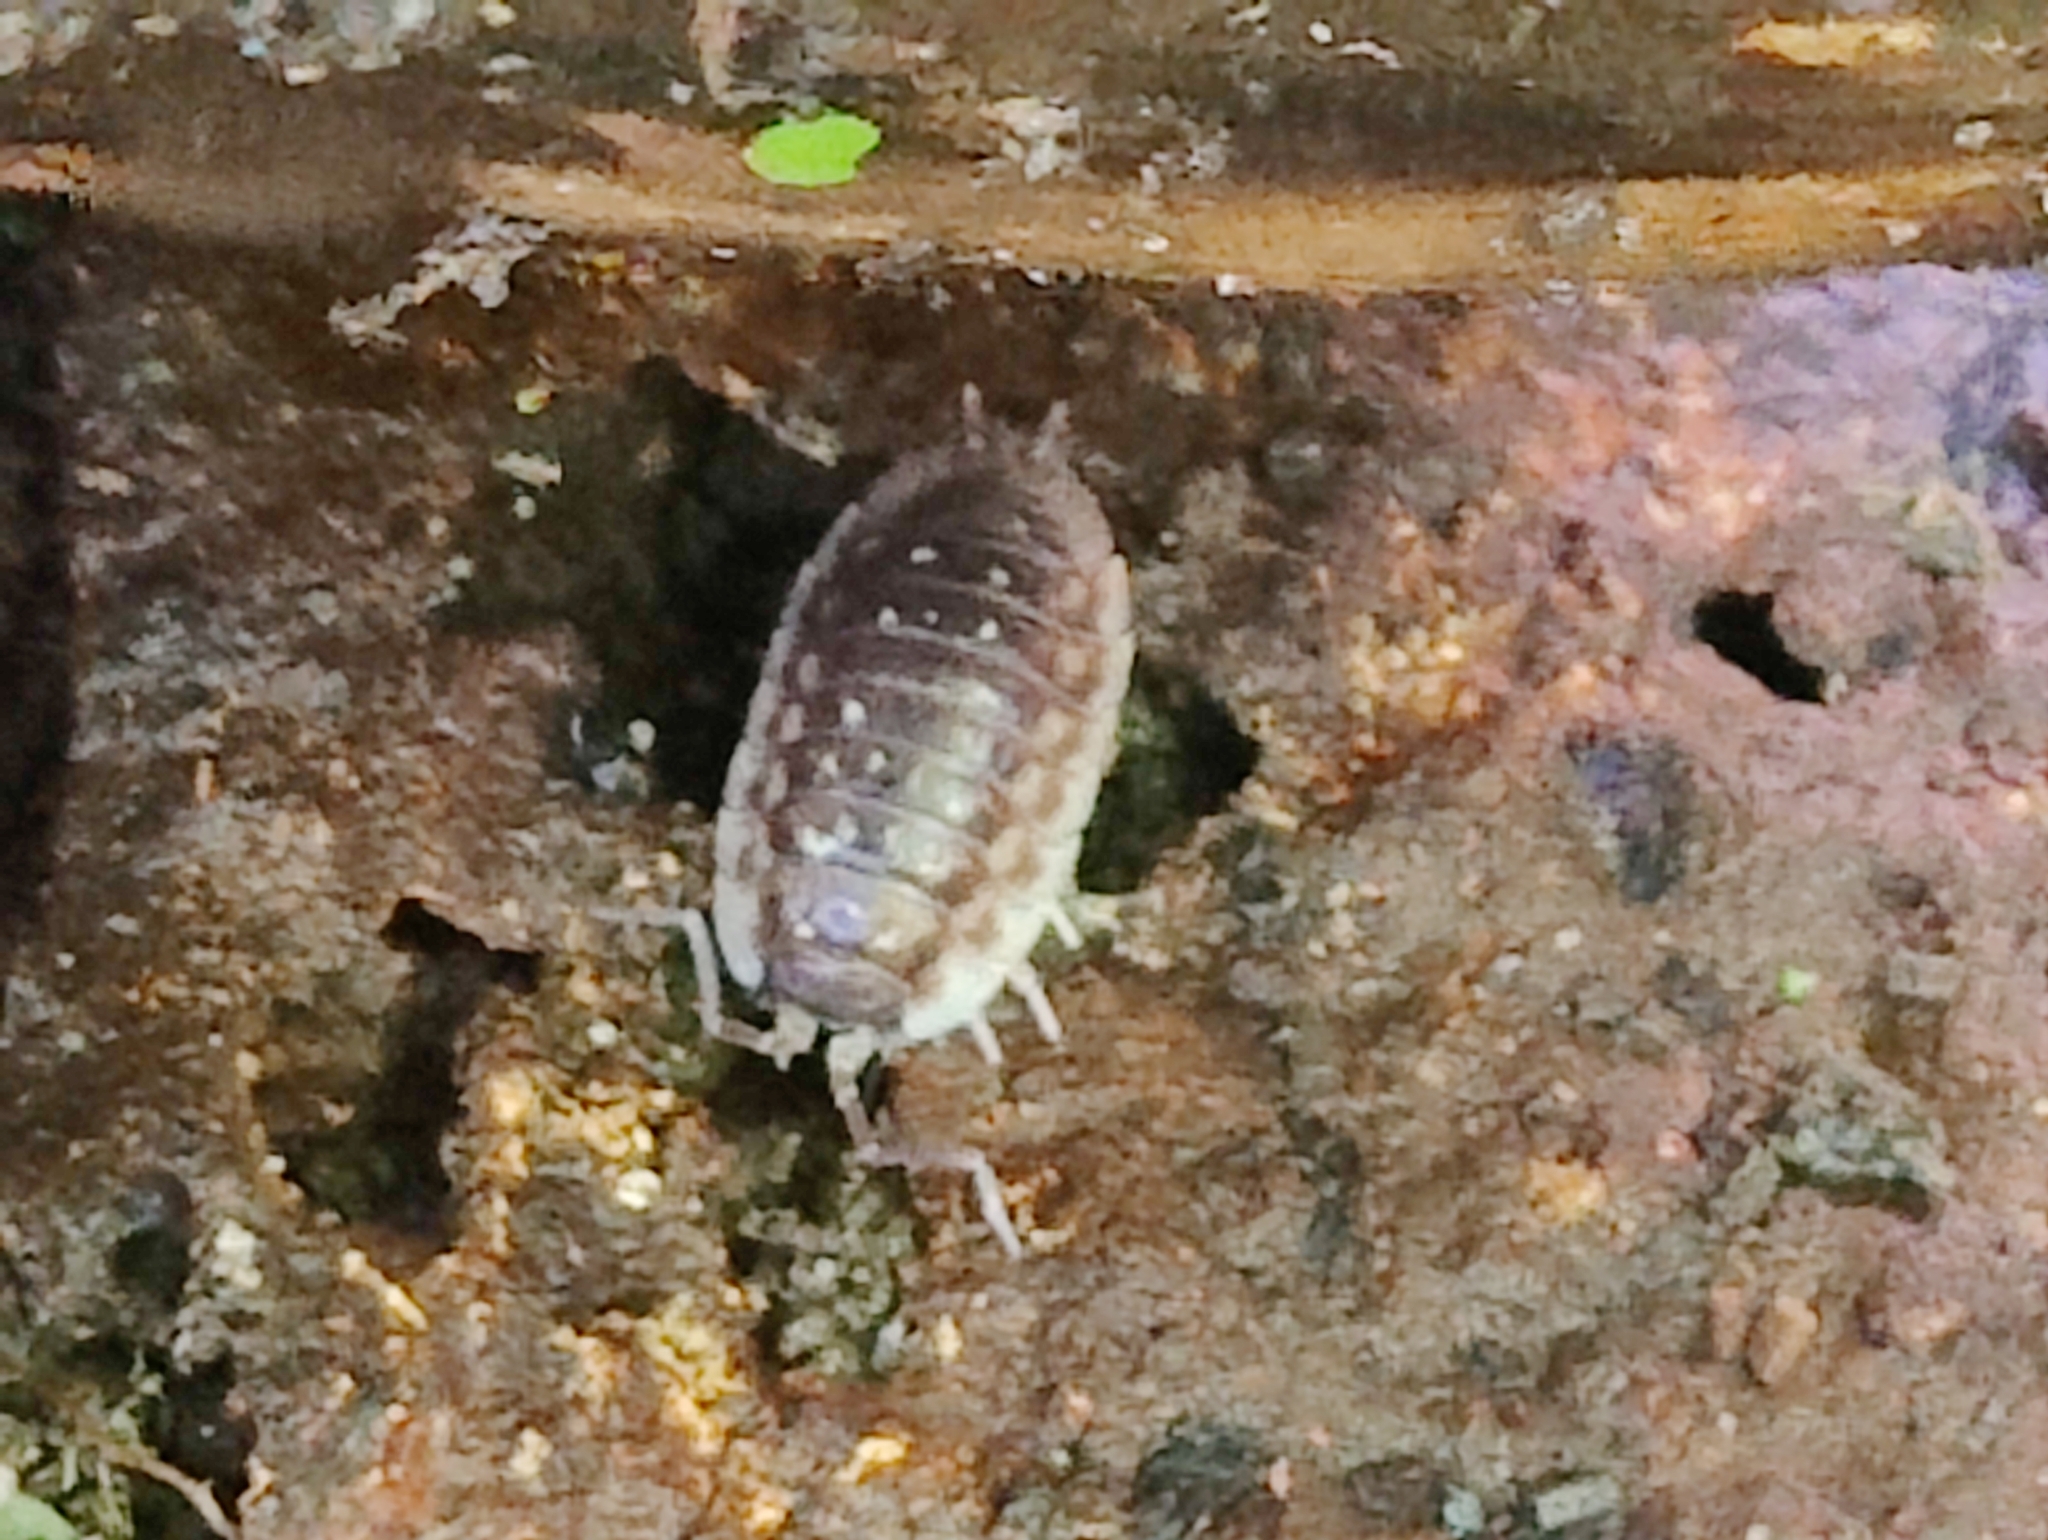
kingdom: Animalia
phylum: Arthropoda
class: Malacostraca
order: Isopoda
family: Oniscidae
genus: Oniscus
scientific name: Oniscus asellus
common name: Common shiny woodlouse
